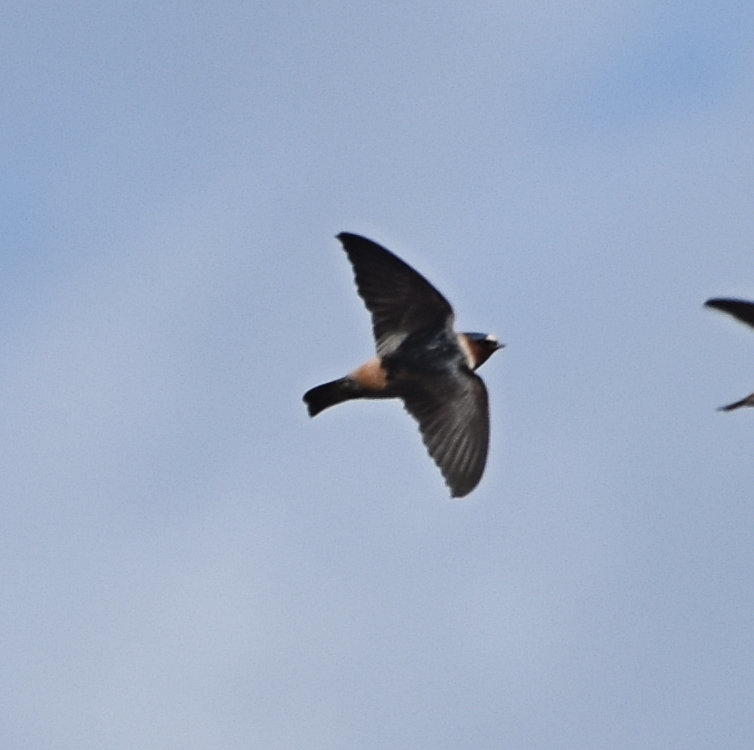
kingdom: Animalia
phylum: Chordata
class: Aves
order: Passeriformes
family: Hirundinidae
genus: Petrochelidon
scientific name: Petrochelidon pyrrhonota
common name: American cliff swallow
